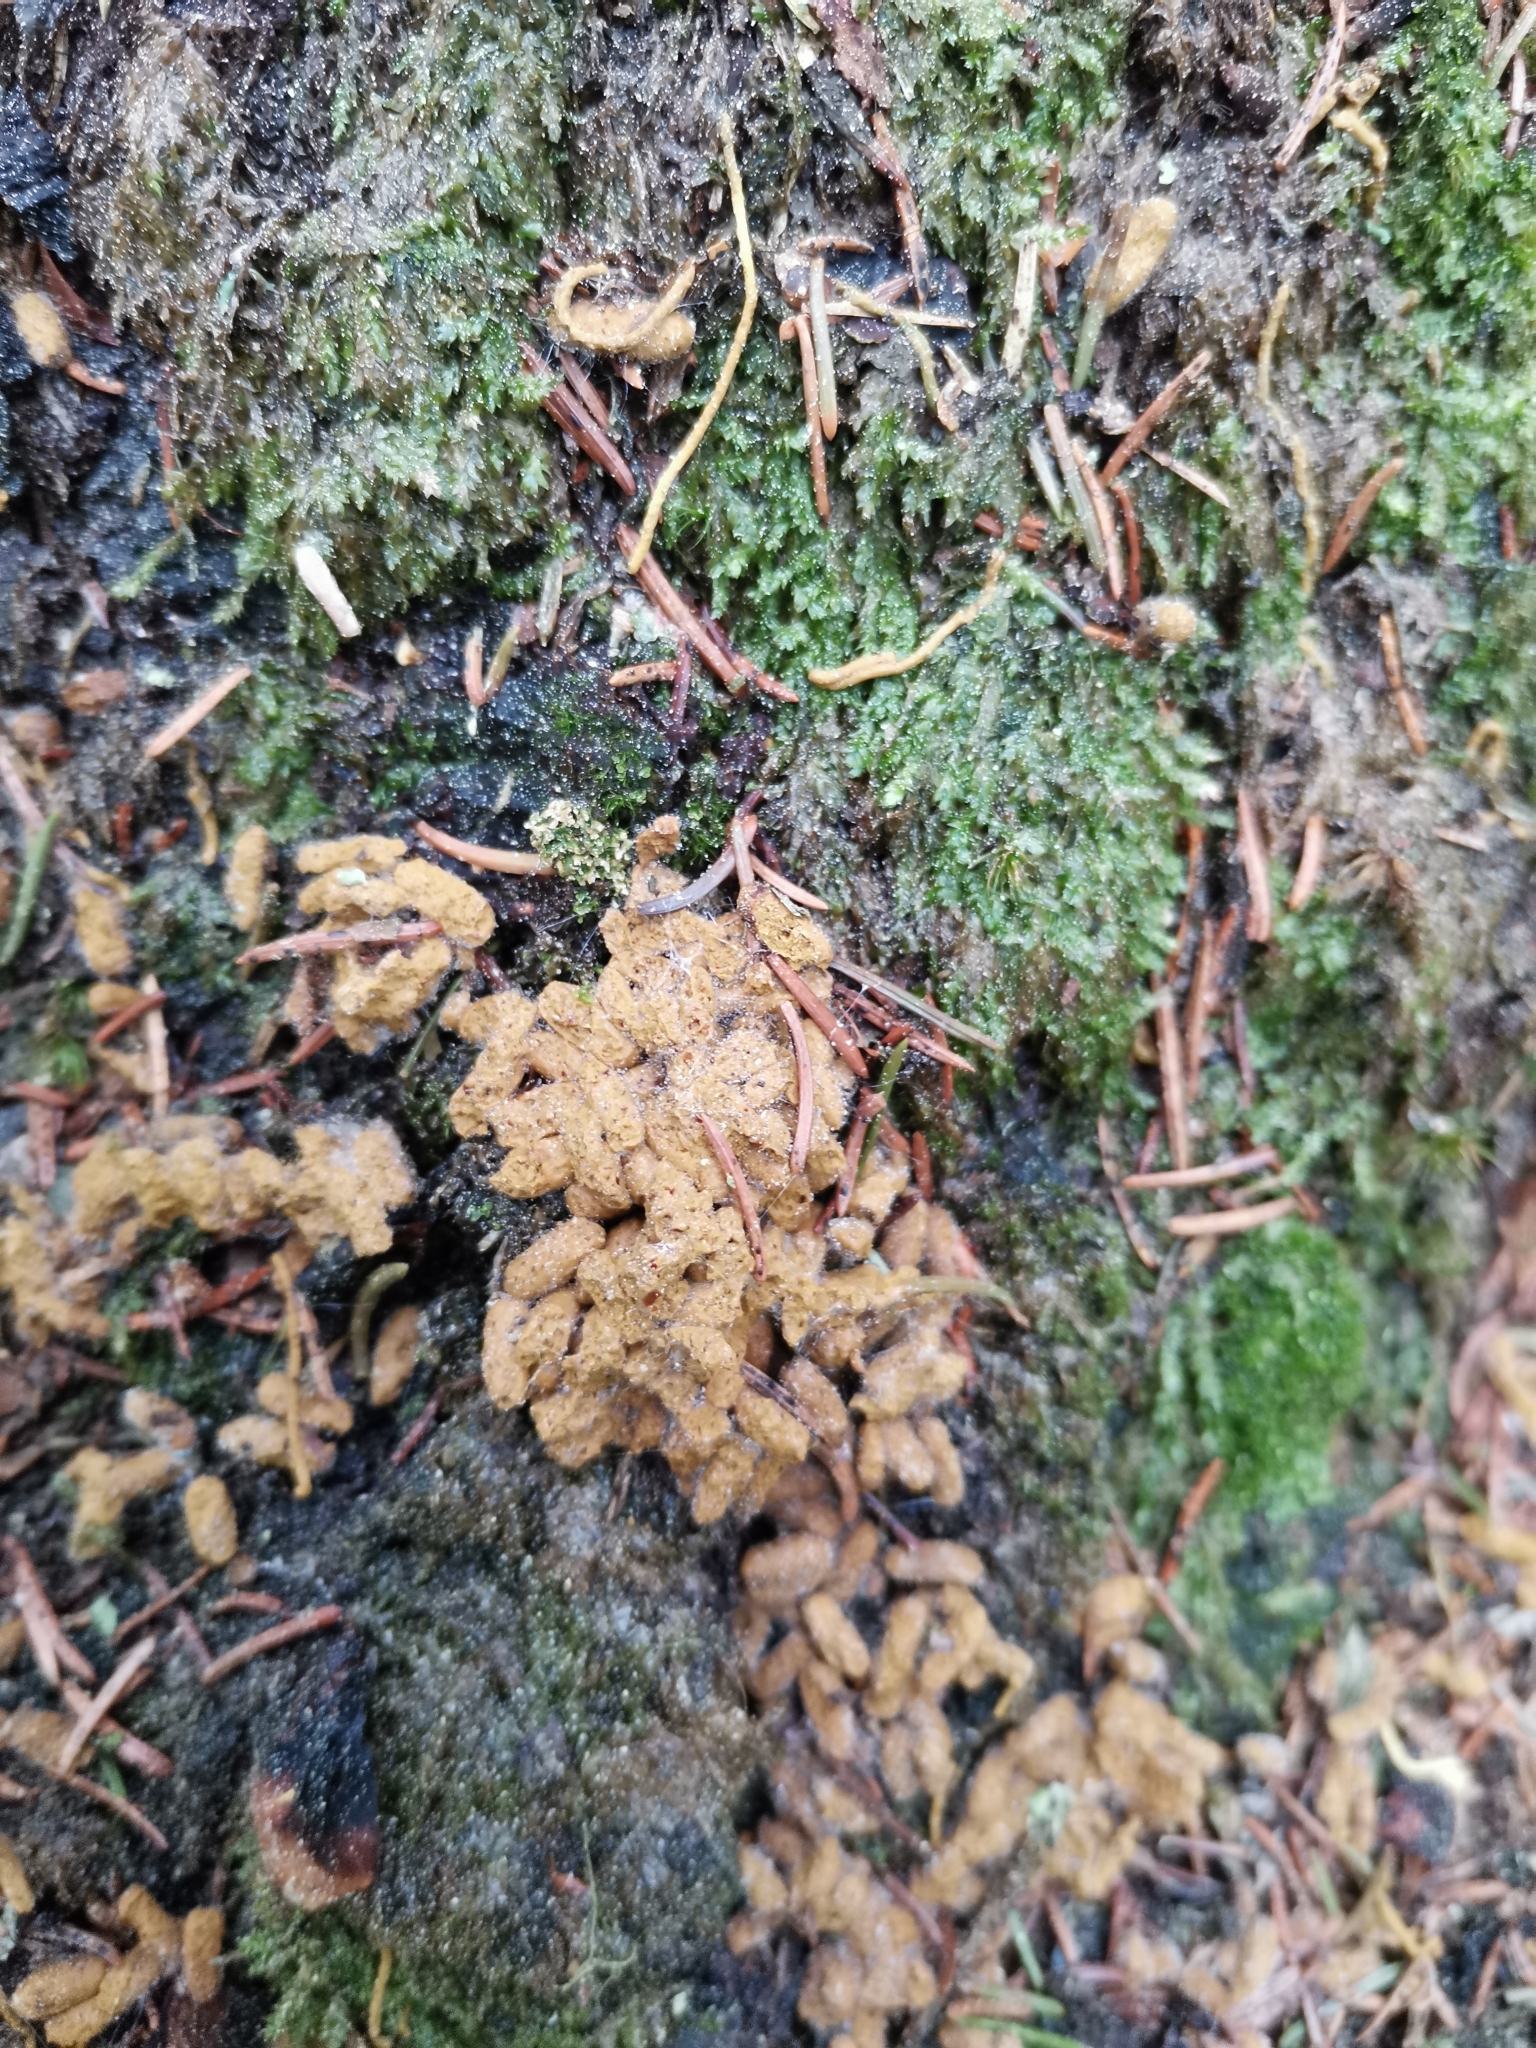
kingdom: Animalia
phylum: Chordata
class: Mammalia
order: Rodentia
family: Sciuridae
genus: Pteromys
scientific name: Pteromys volans
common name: Siberian flying squirrel
